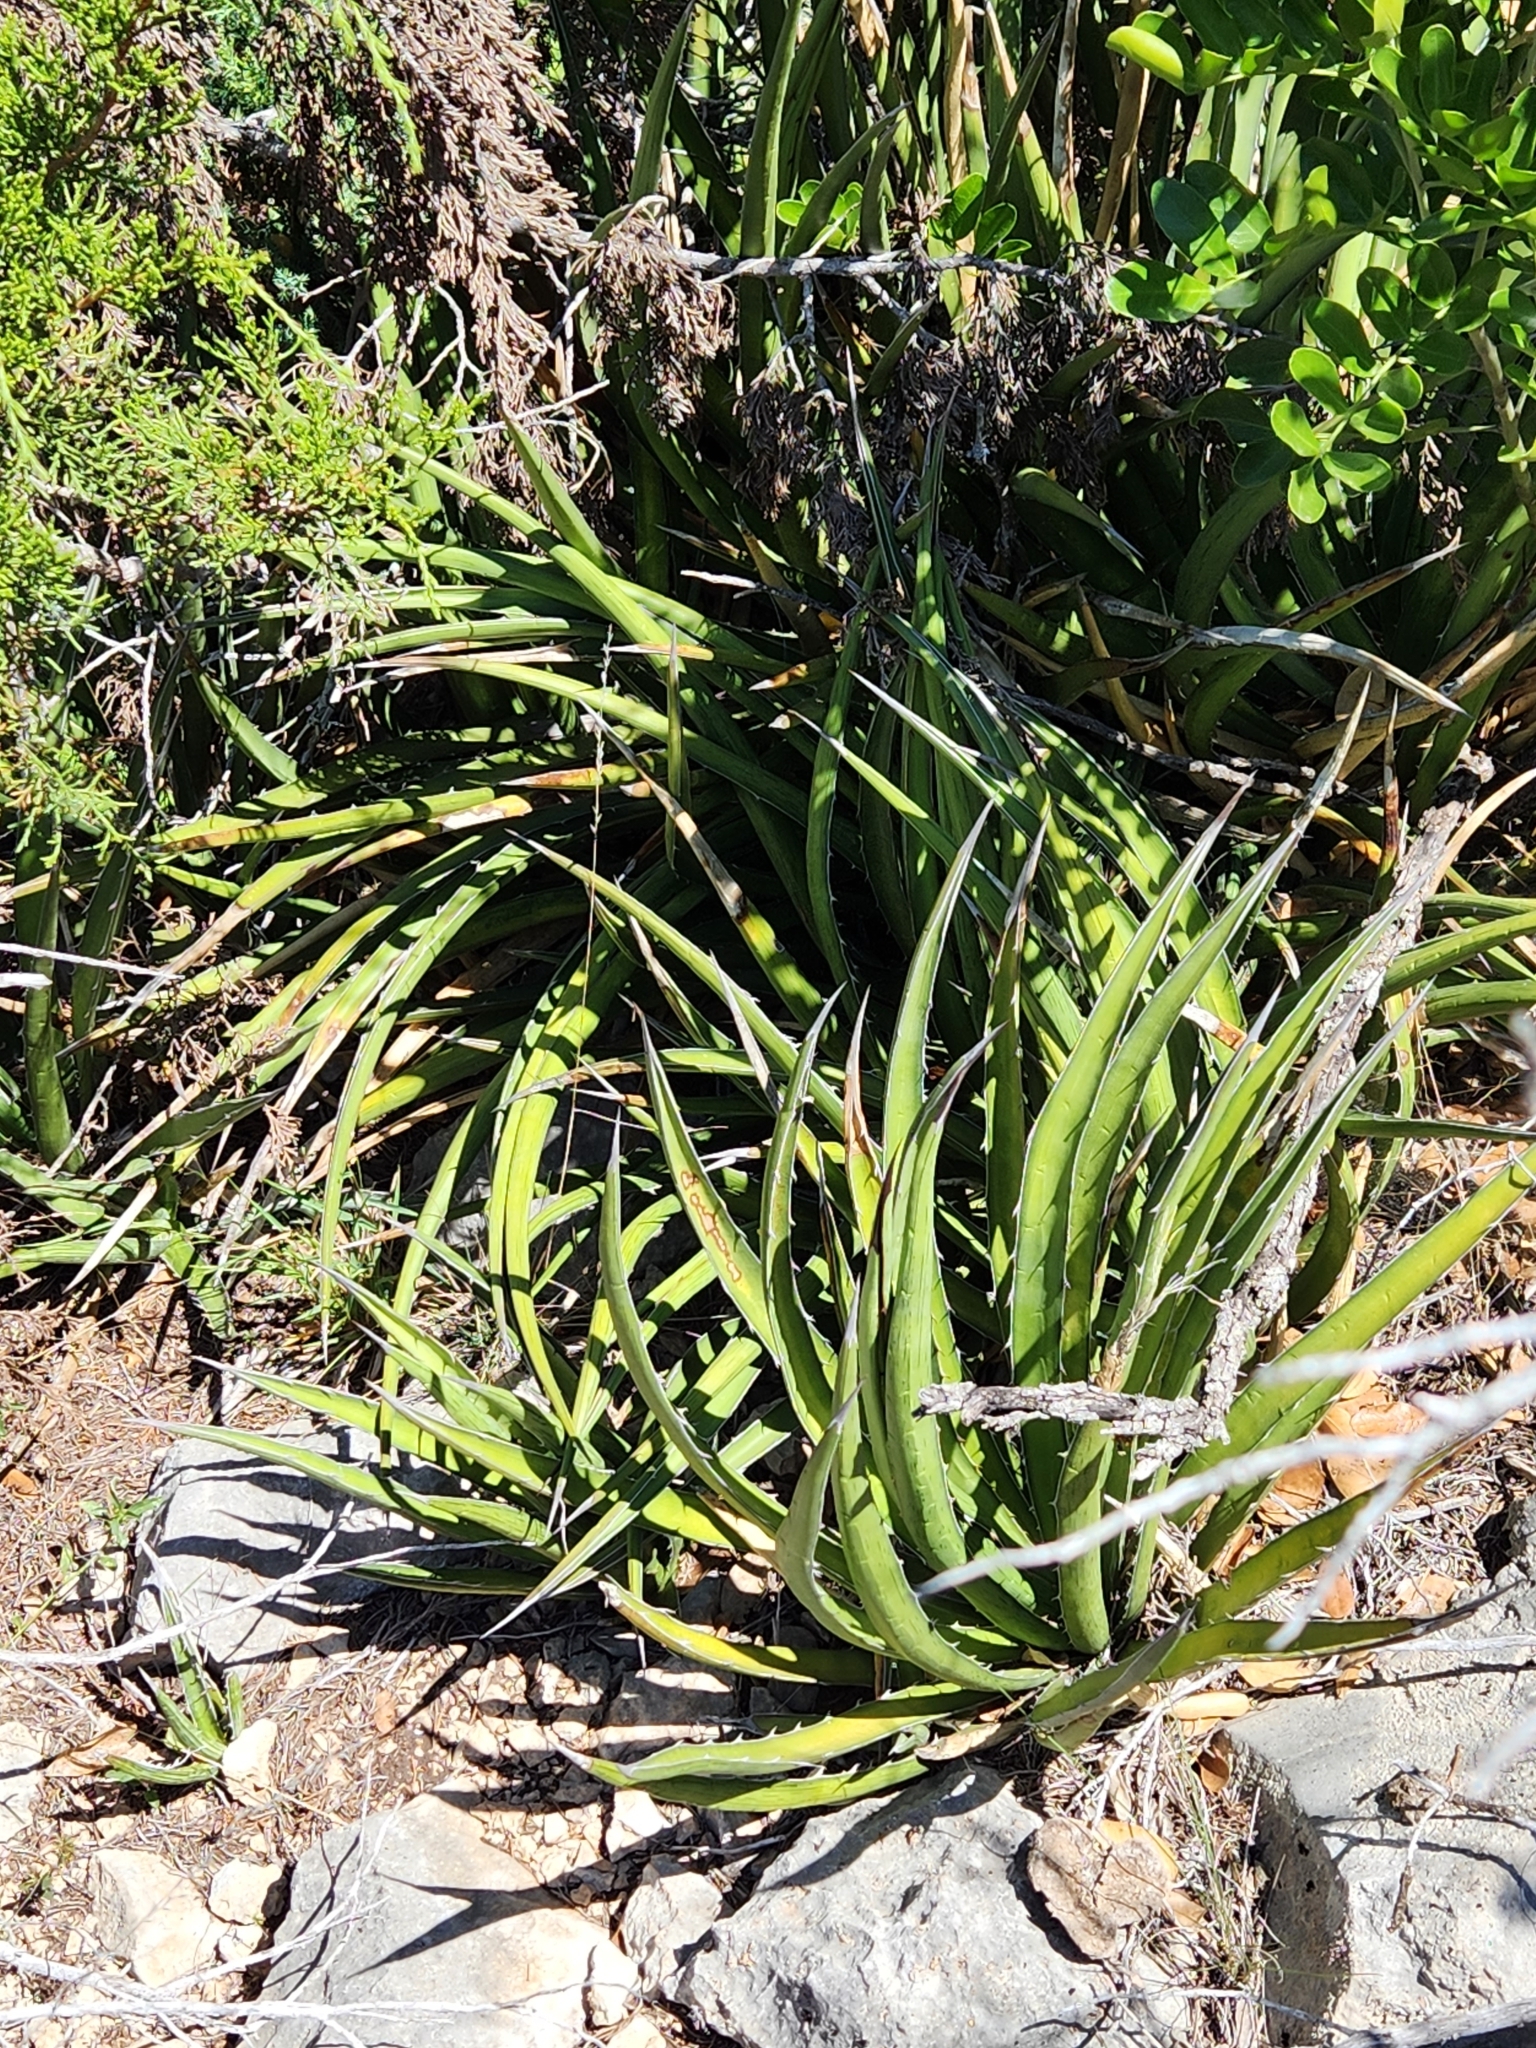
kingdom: Plantae
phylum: Tracheophyta
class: Liliopsida
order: Asparagales
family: Asparagaceae
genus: Agave
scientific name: Agave lechuguilla
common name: Lecheguilla agave
